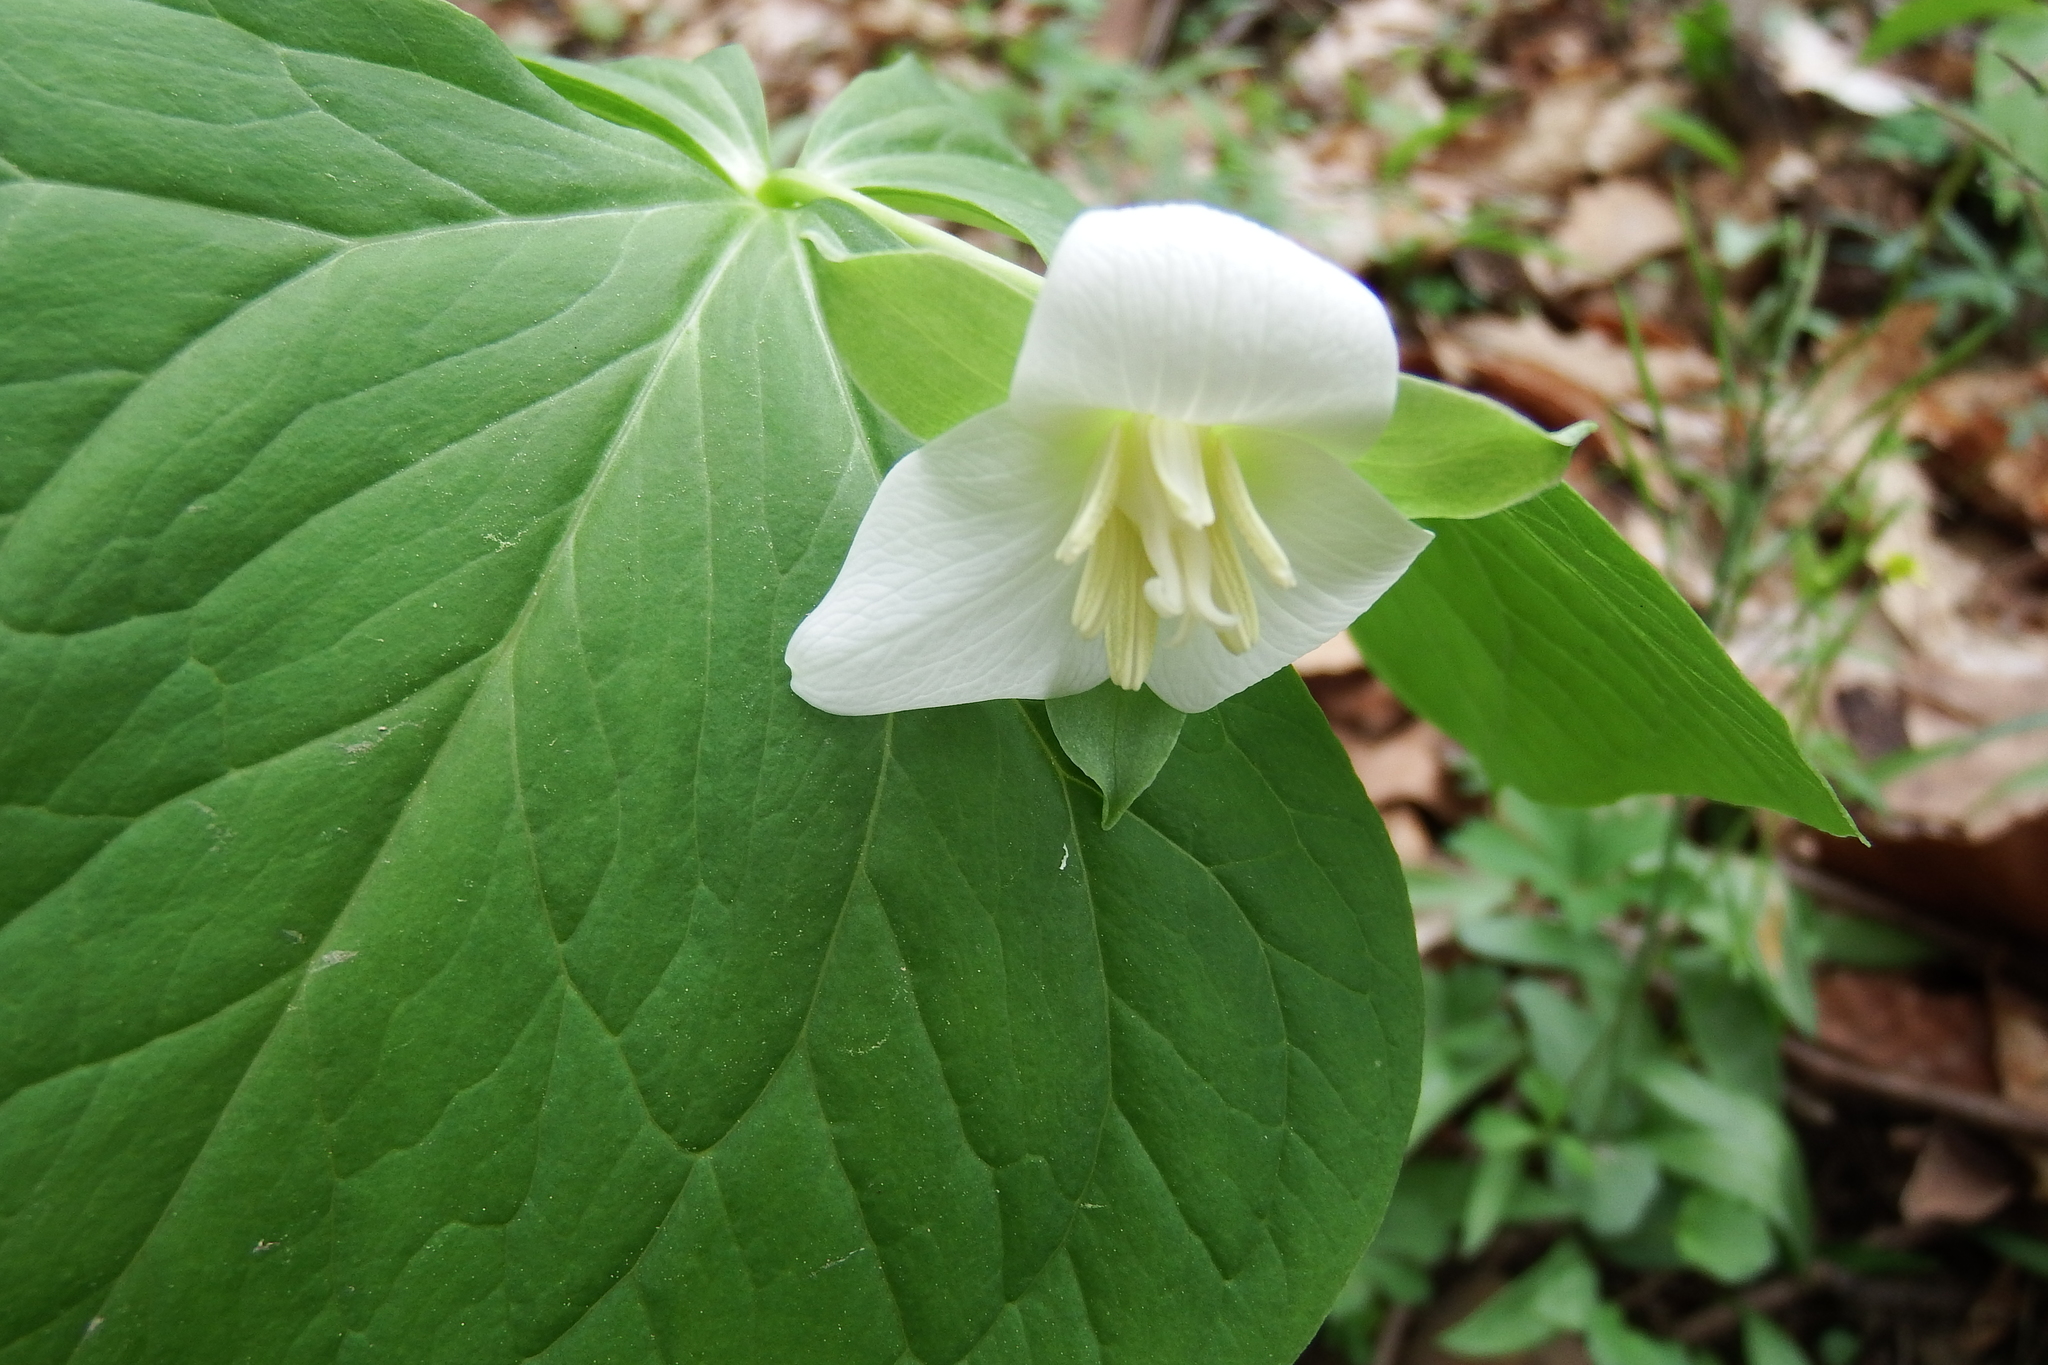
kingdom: Plantae
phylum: Tracheophyta
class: Liliopsida
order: Liliales
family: Melanthiaceae
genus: Trillium
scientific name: Trillium flexipes
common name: Drooping trillium
